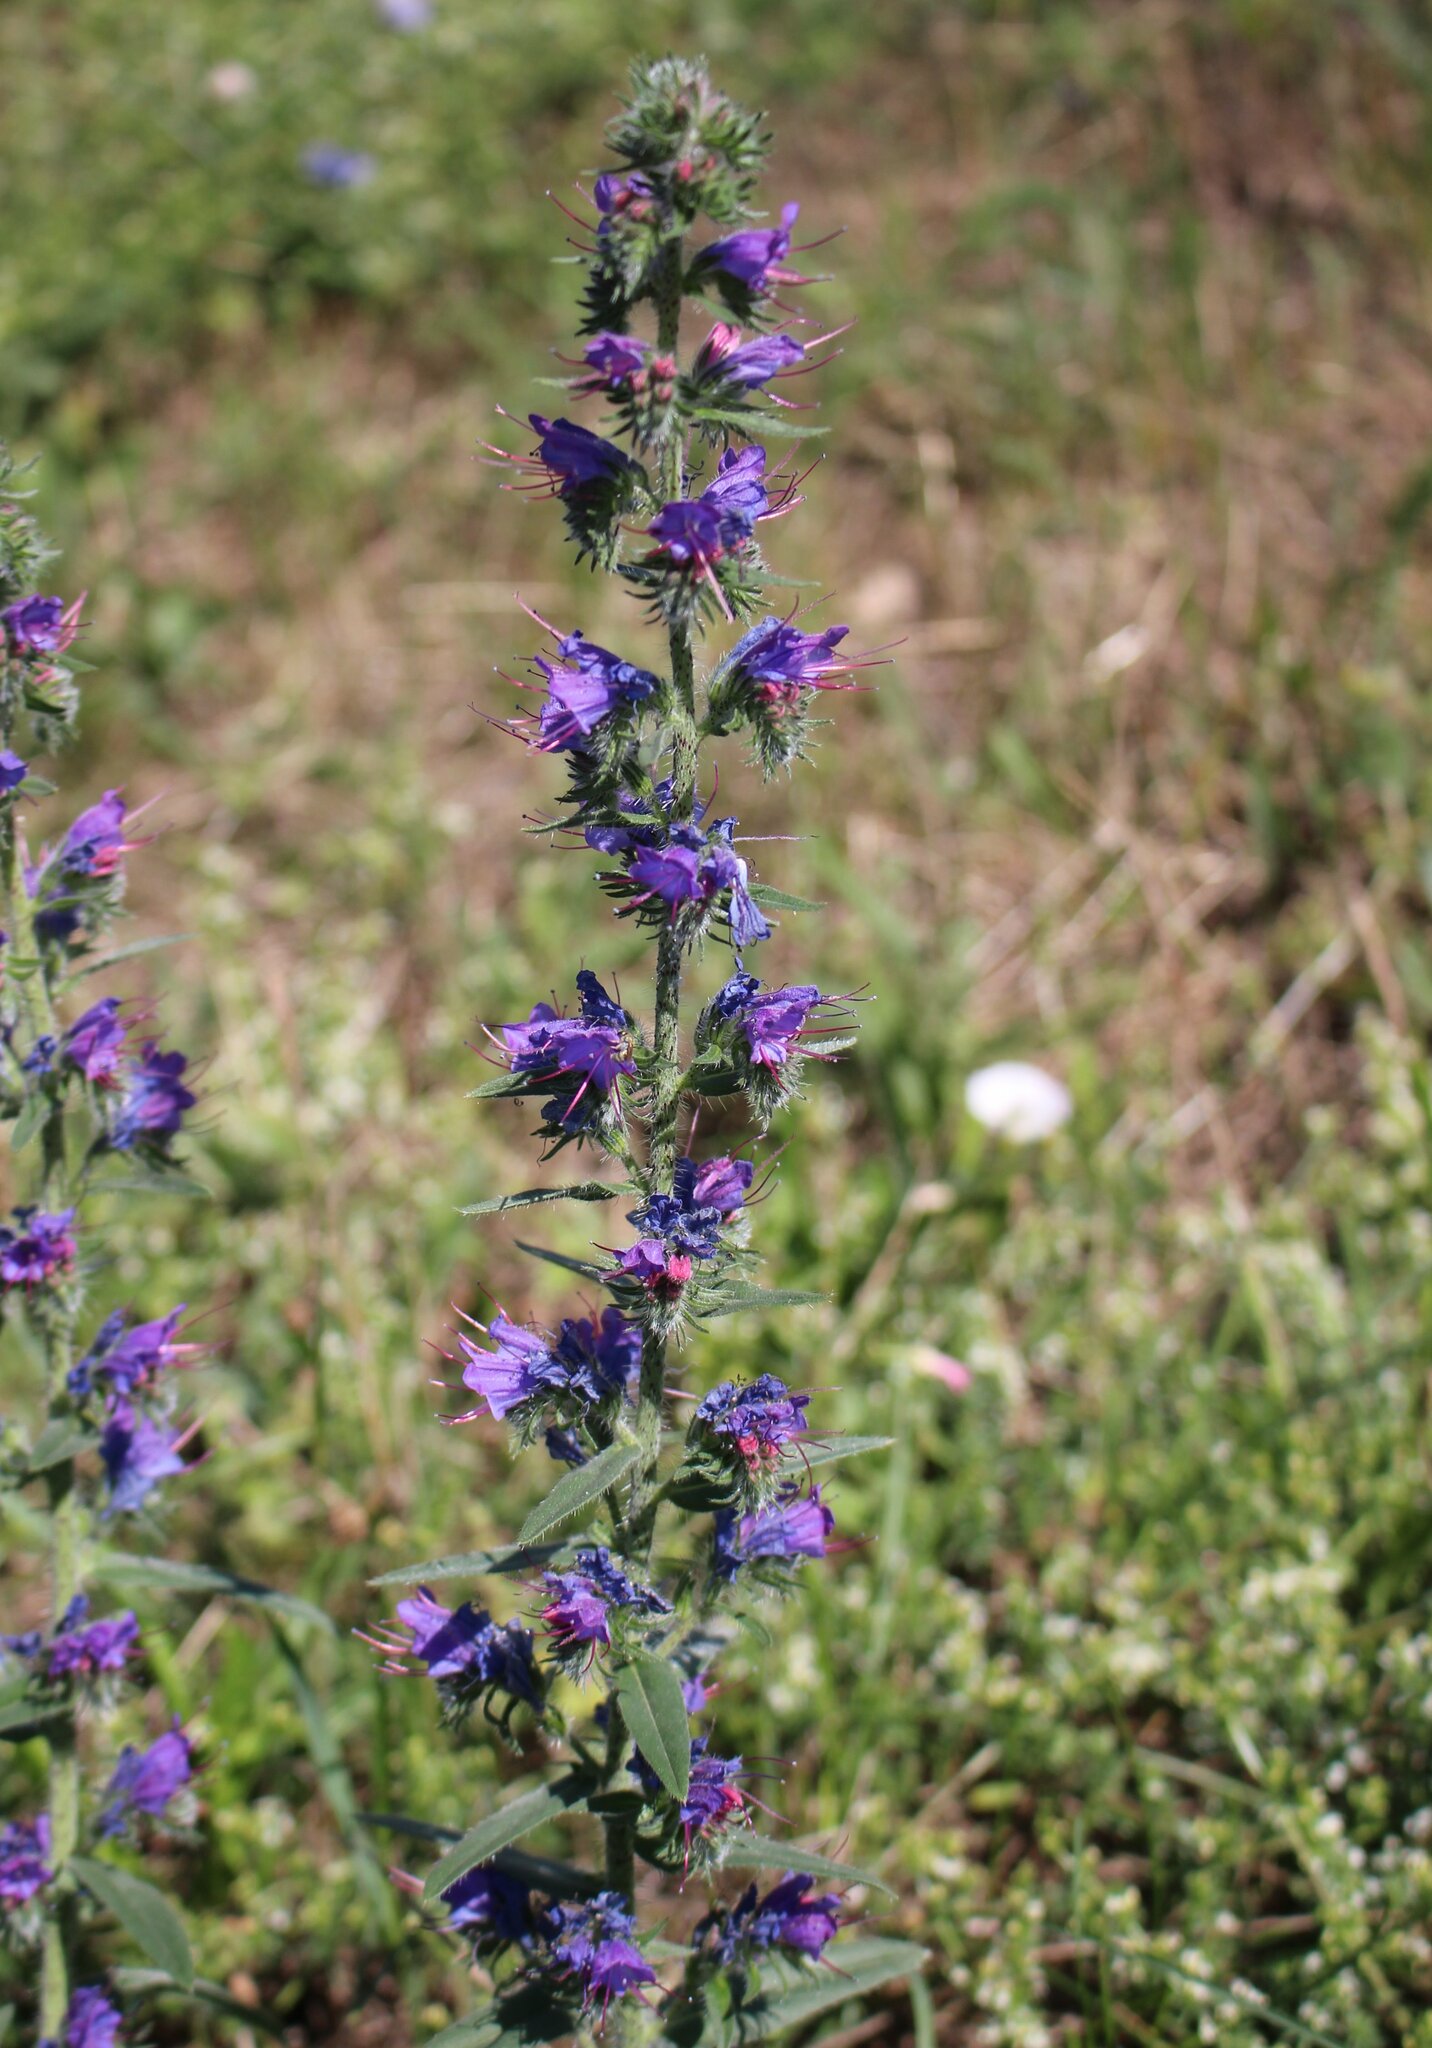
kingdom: Plantae
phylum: Tracheophyta
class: Magnoliopsida
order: Boraginales
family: Boraginaceae
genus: Echium
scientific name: Echium vulgare
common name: Common viper's bugloss
